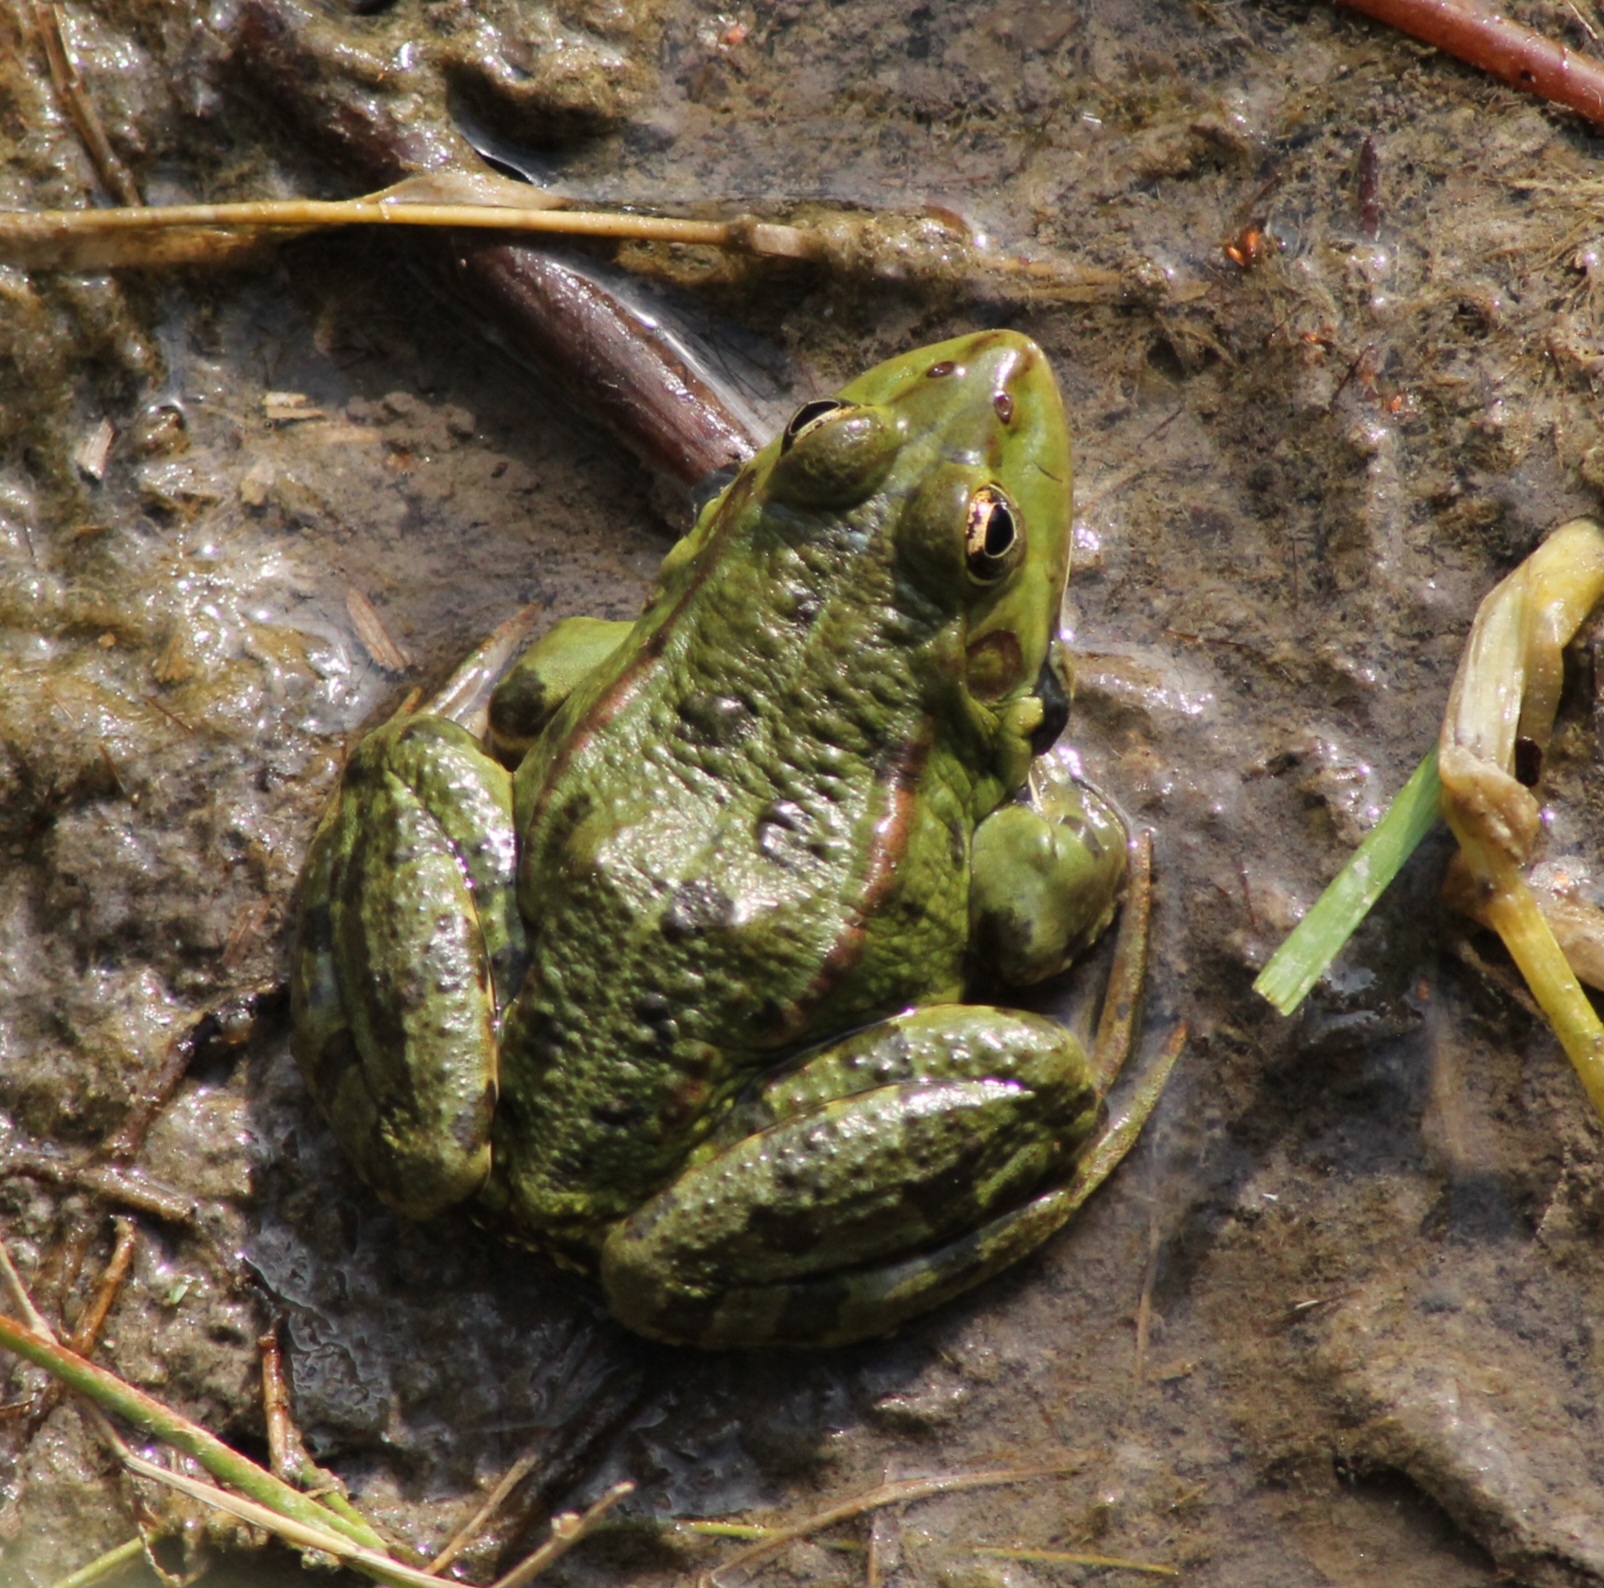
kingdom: Animalia
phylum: Chordata
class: Amphibia
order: Anura
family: Ranidae
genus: Pelophylax
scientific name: Pelophylax
